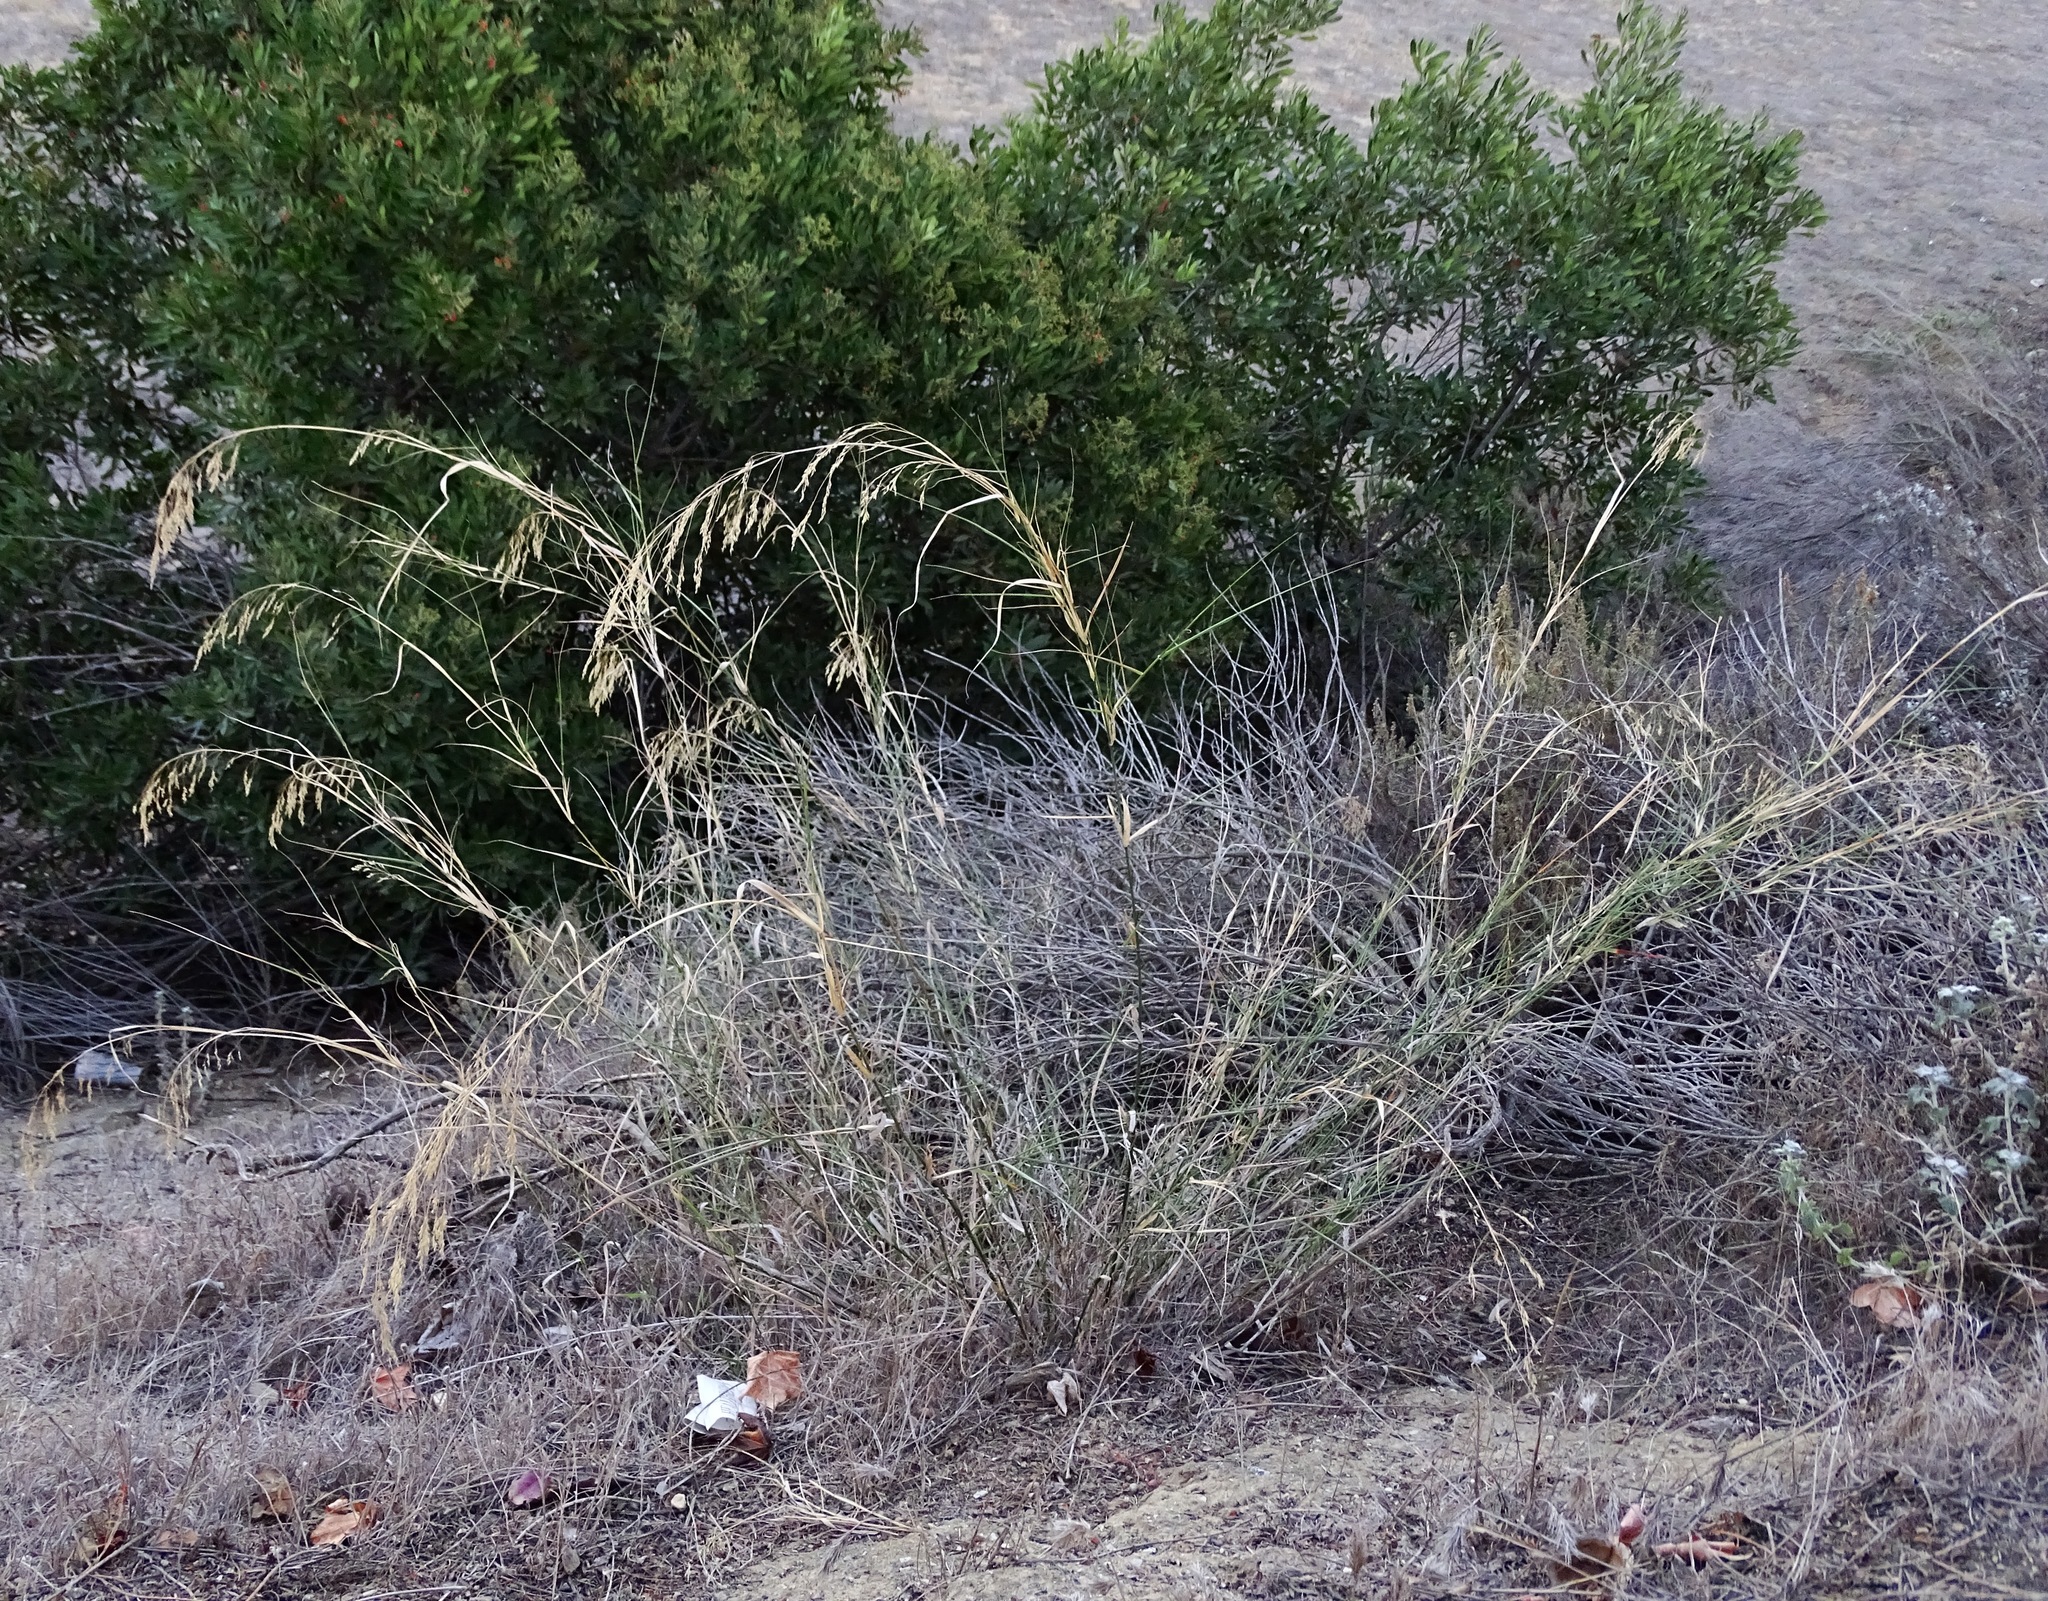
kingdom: Plantae
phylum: Tracheophyta
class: Liliopsida
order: Poales
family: Poaceae
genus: Oloptum
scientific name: Oloptum miliaceum
